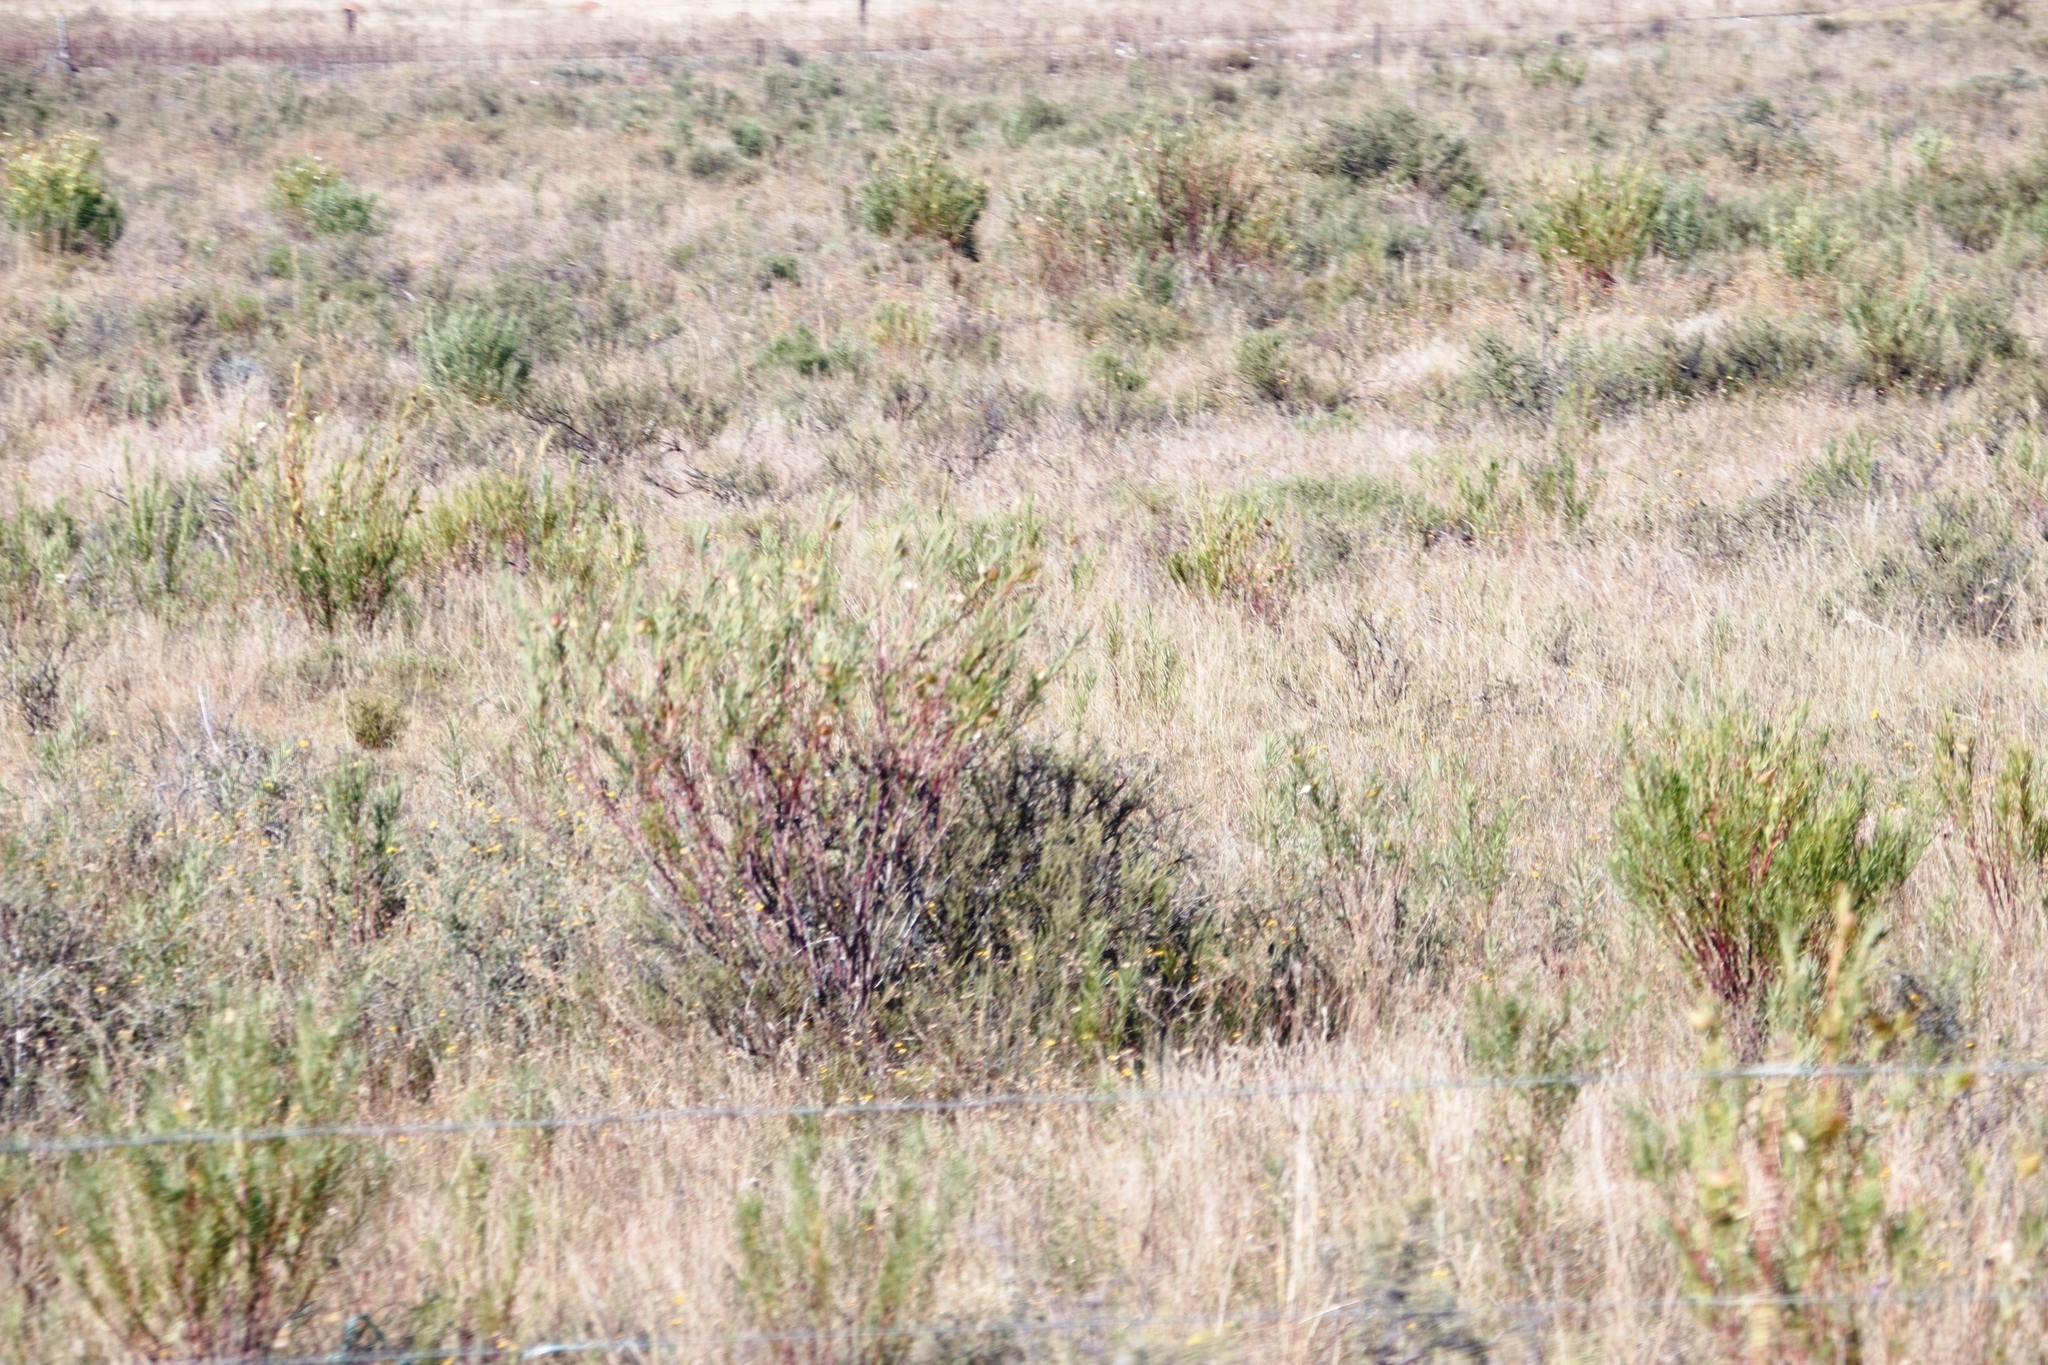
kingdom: Plantae
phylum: Tracheophyta
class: Magnoliopsida
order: Gentianales
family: Apocynaceae
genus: Gomphocarpus
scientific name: Gomphocarpus fruticosus
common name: Milkweed
